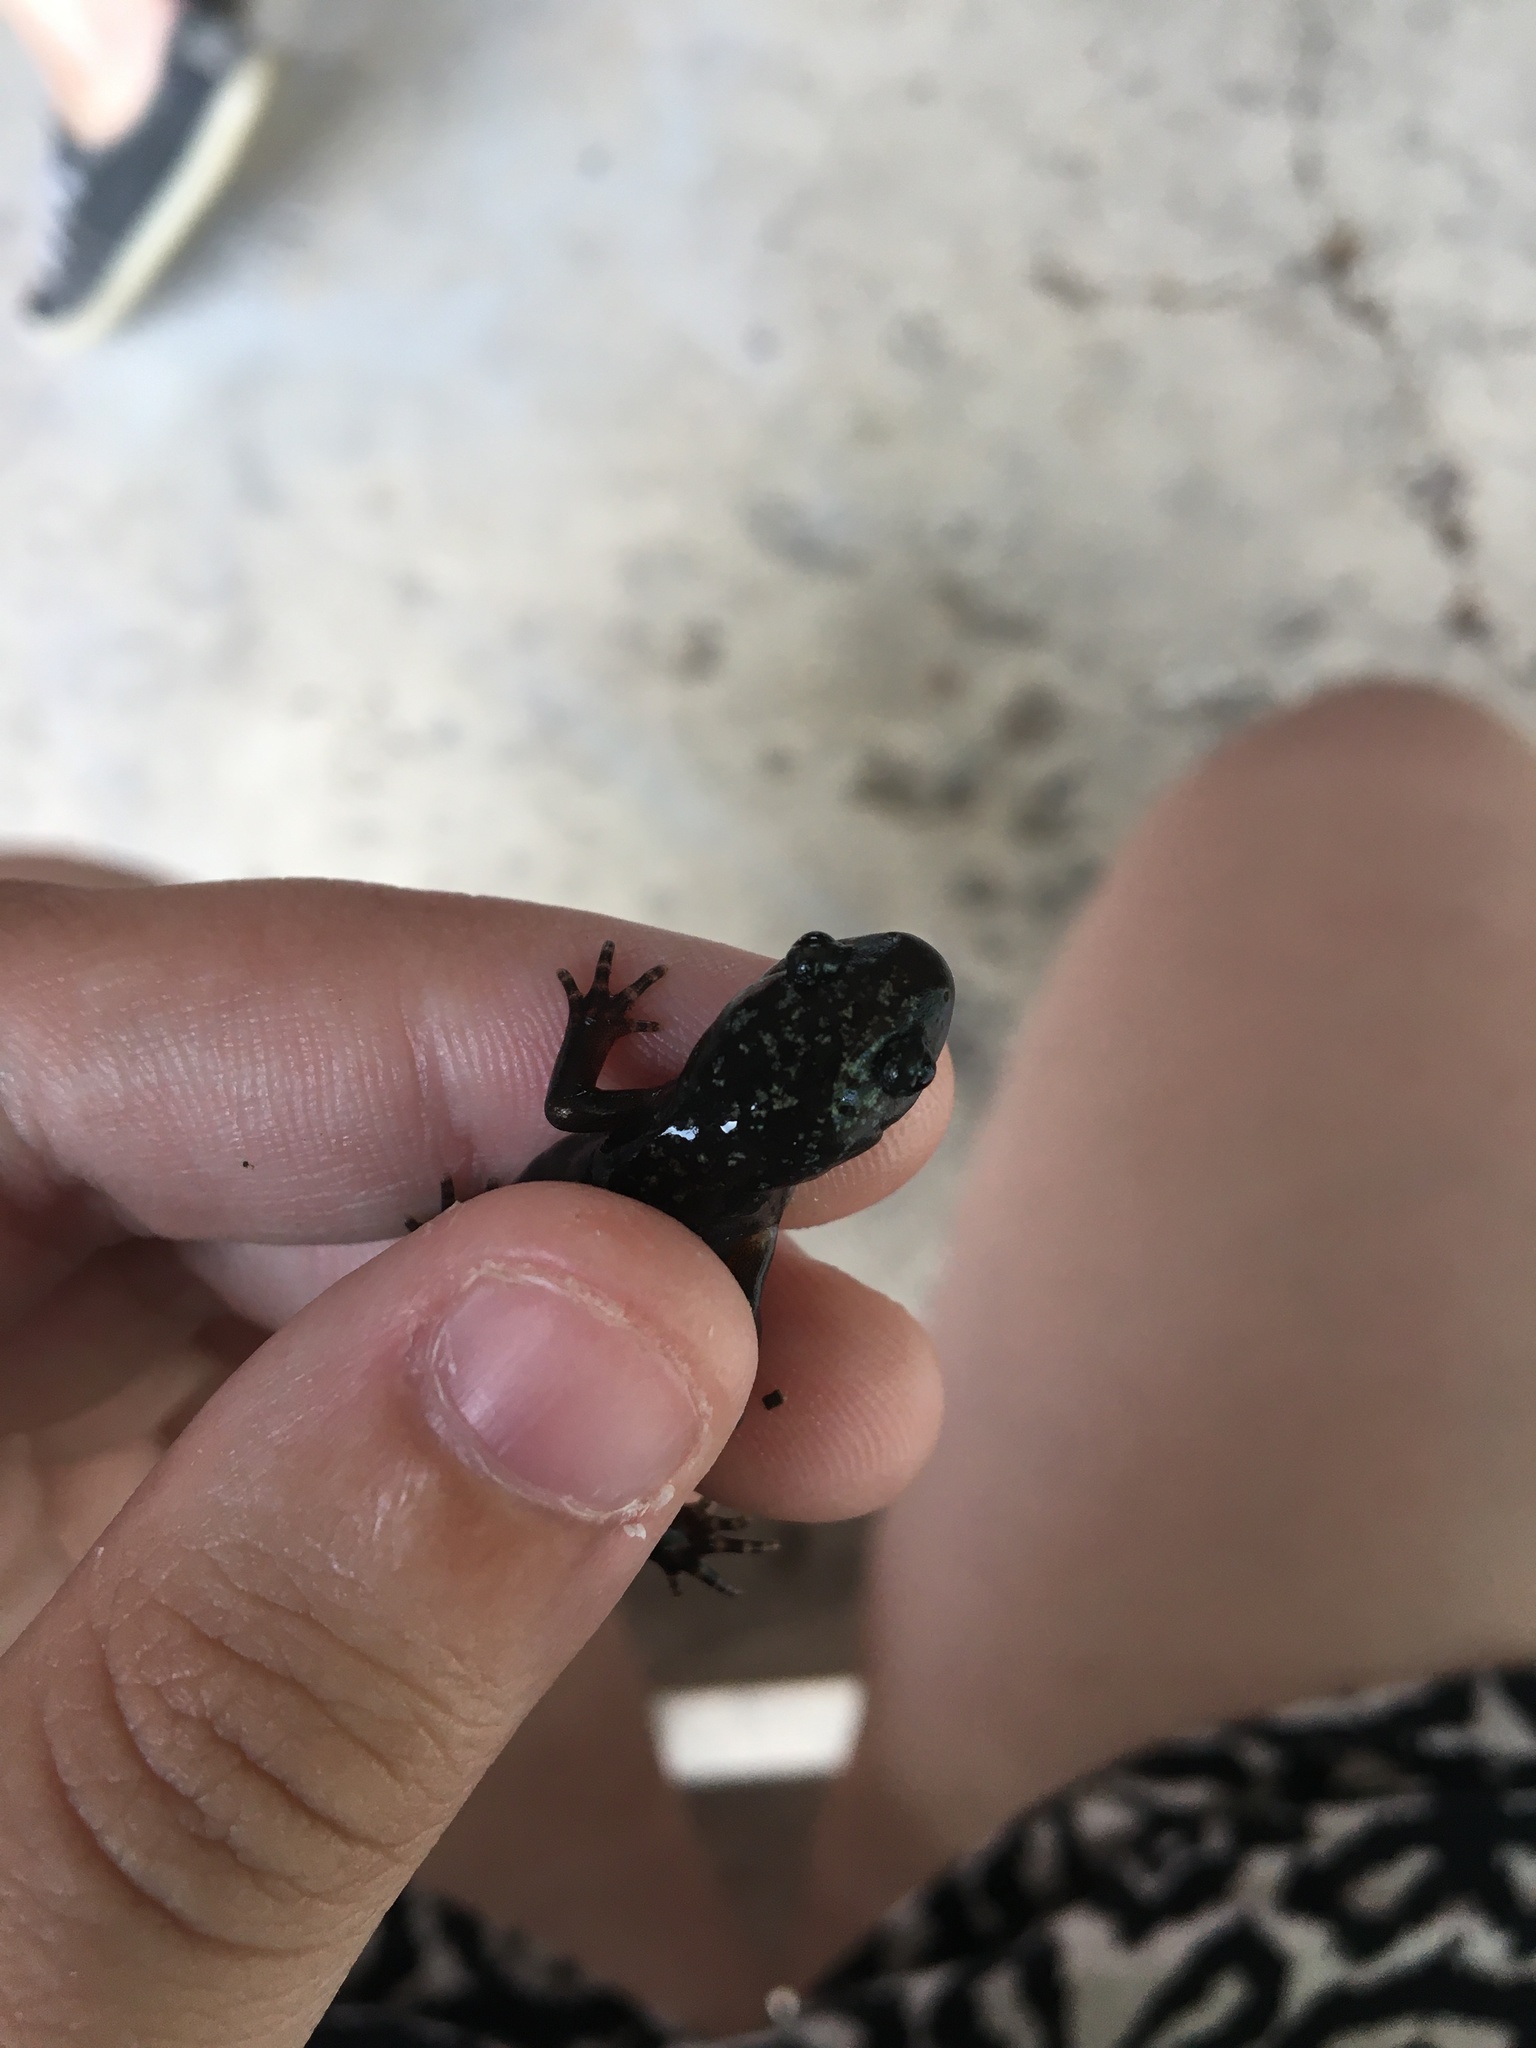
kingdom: Animalia
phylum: Chordata
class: Amphibia
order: Caudata
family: Ambystomatidae
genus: Ambystoma
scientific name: Ambystoma opacum
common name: Marbled salamander
